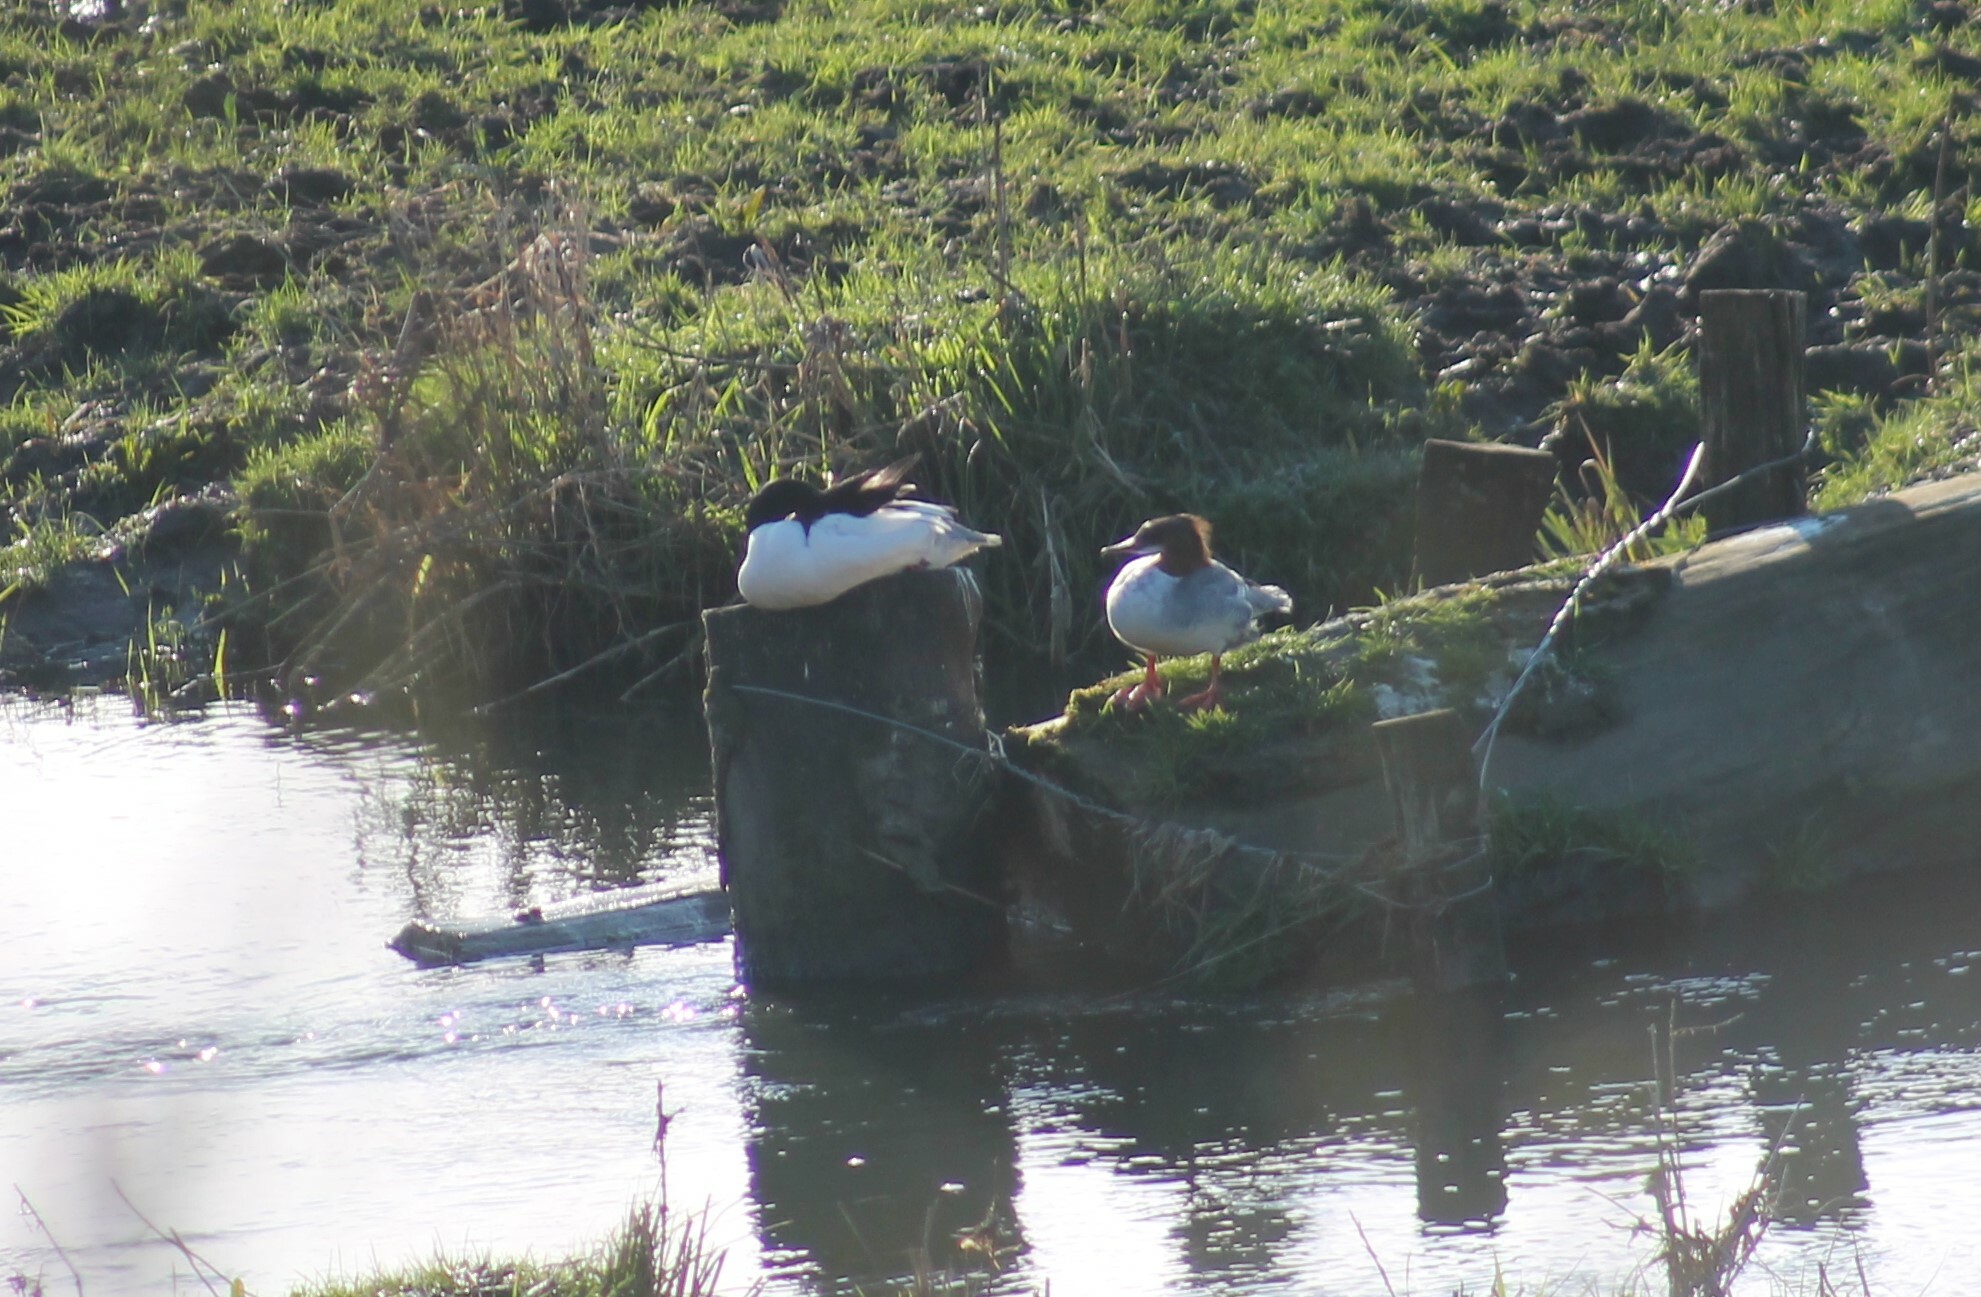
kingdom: Animalia
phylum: Chordata
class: Aves
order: Anseriformes
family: Anatidae
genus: Mergus
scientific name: Mergus merganser
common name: Common merganser
